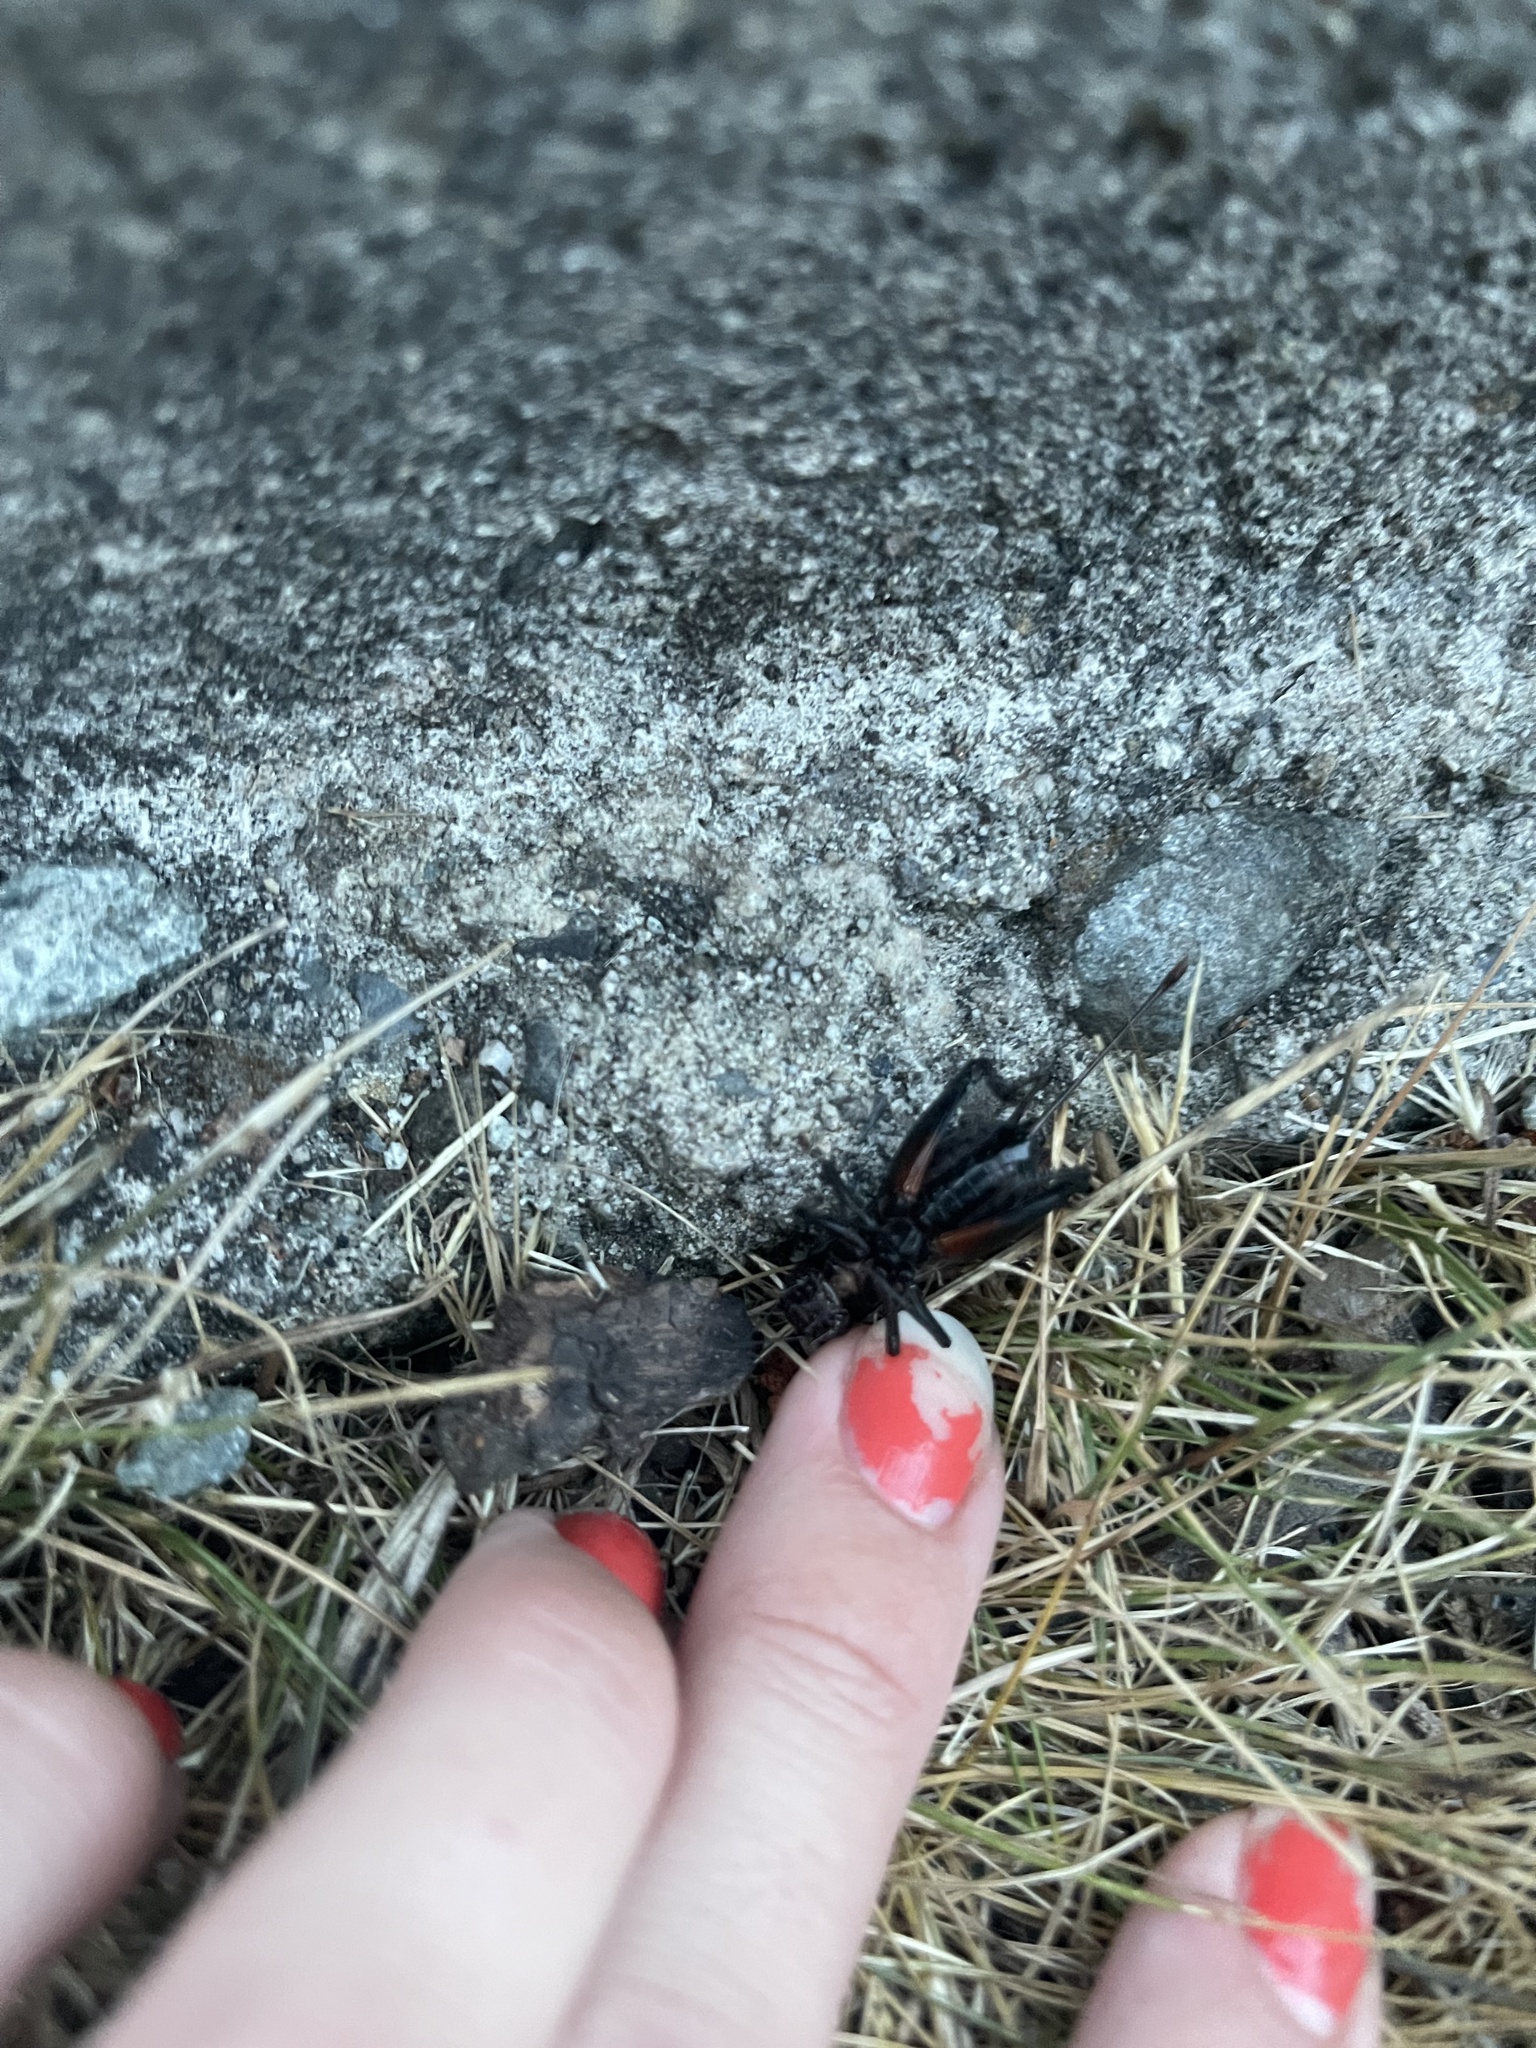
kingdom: Animalia
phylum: Arthropoda
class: Insecta
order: Orthoptera
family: Gryllidae
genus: Gryllus
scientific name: Gryllus pennsylvanicus
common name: Fall field cricket
